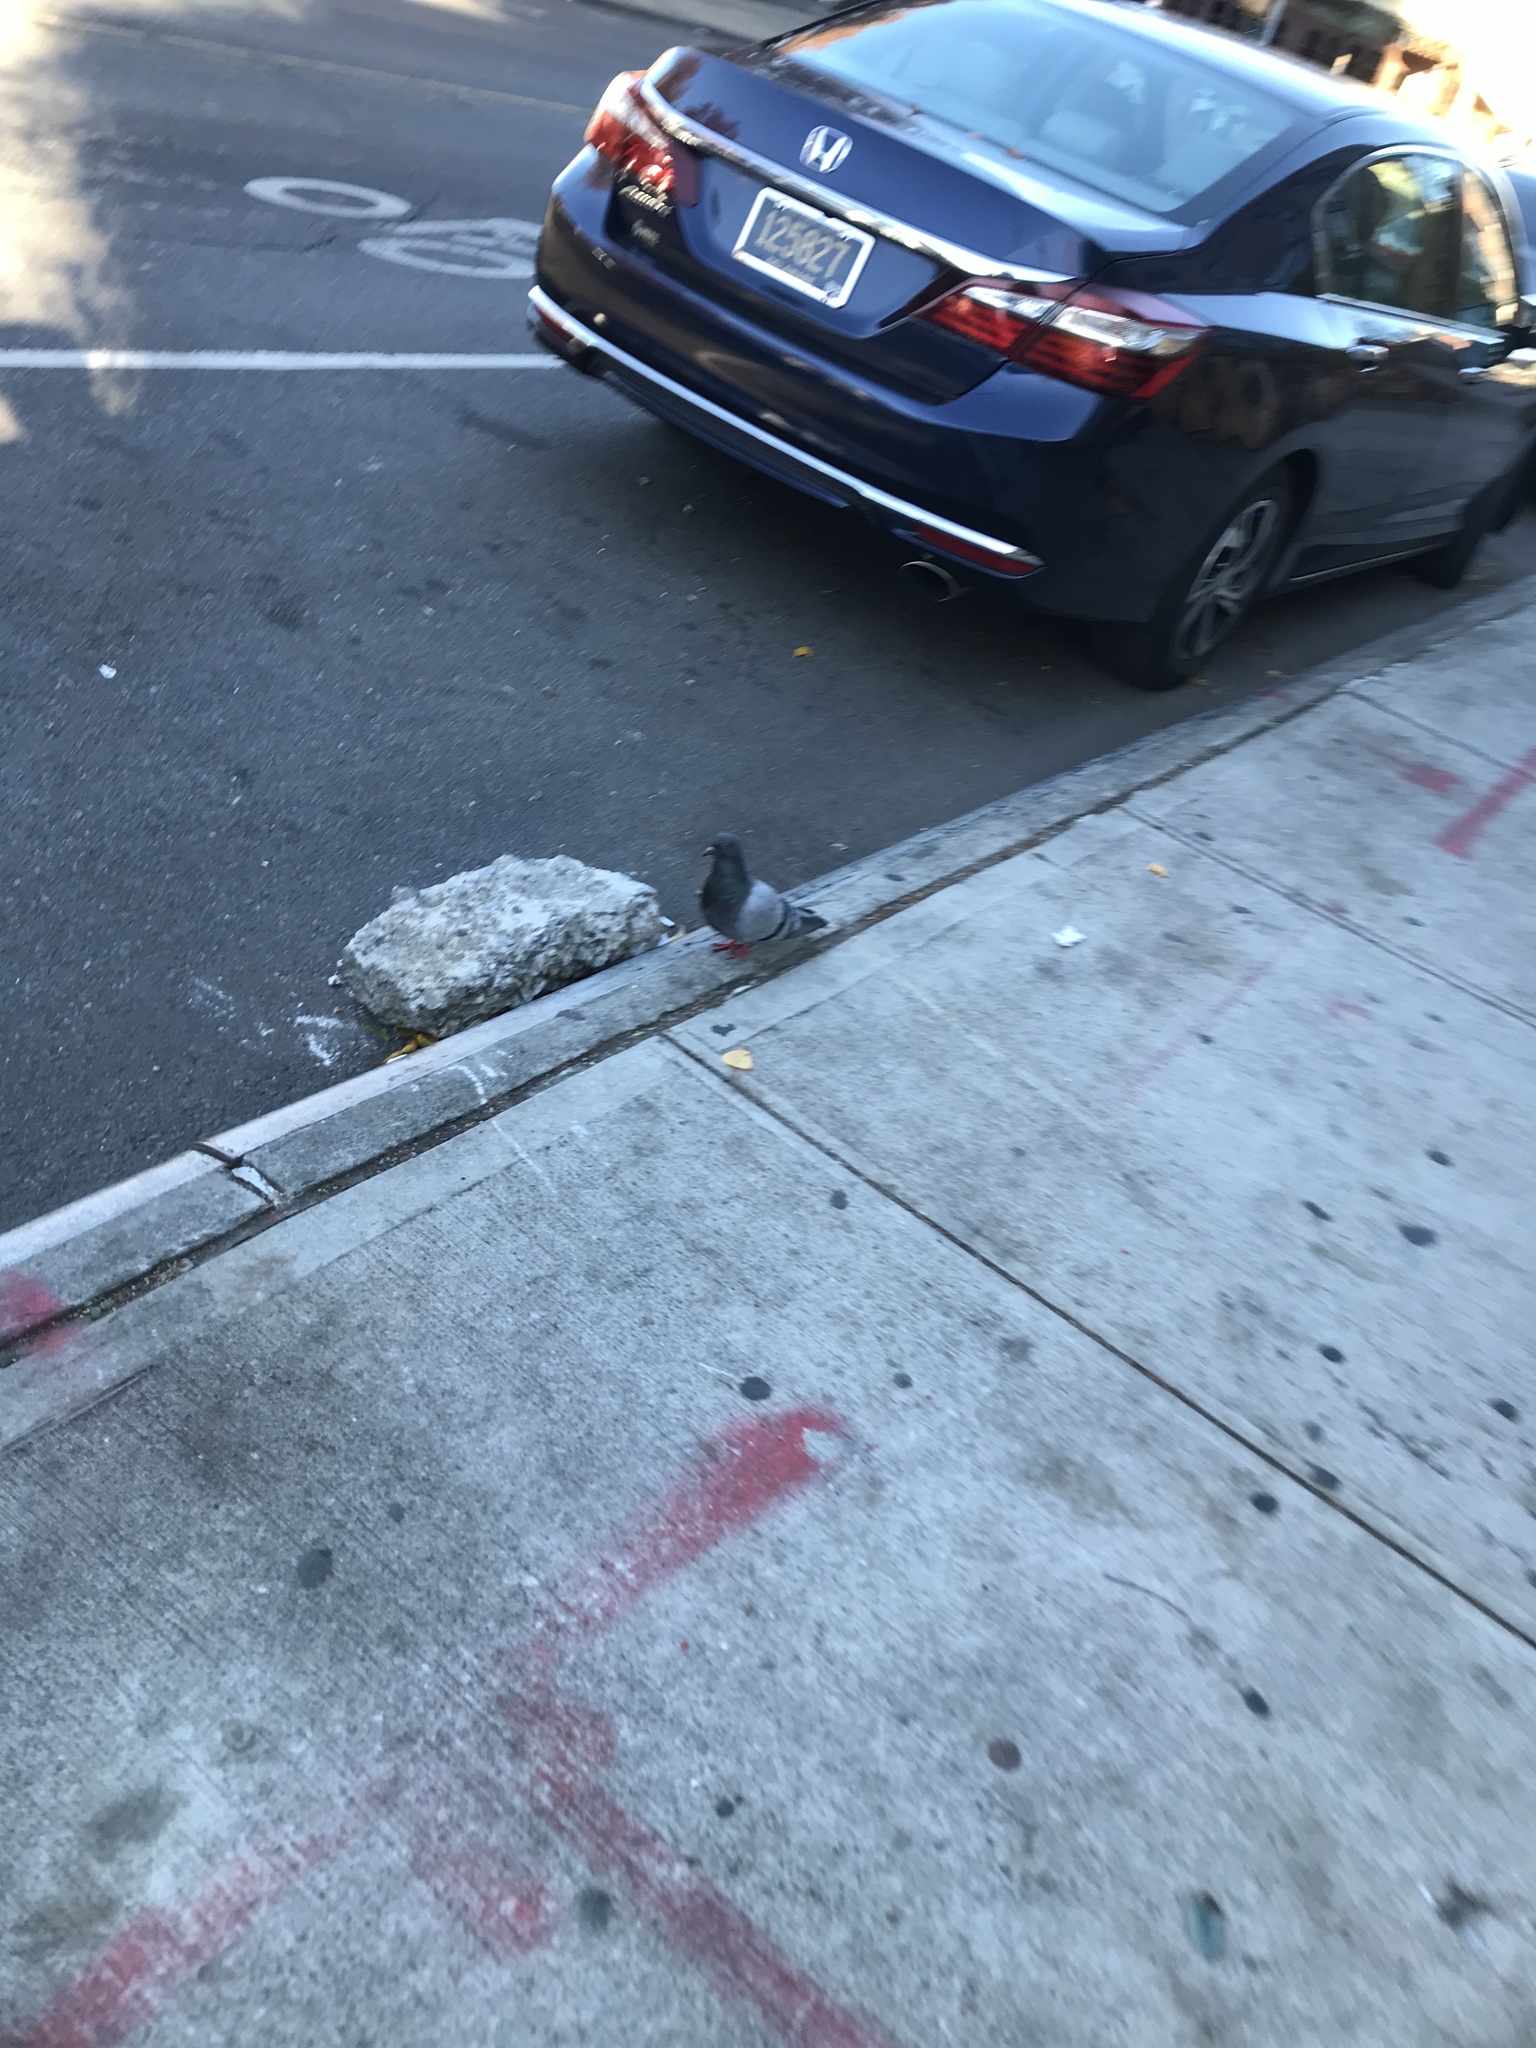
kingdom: Animalia
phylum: Chordata
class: Aves
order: Columbiformes
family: Columbidae
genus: Columba
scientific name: Columba livia
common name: Rock pigeon
